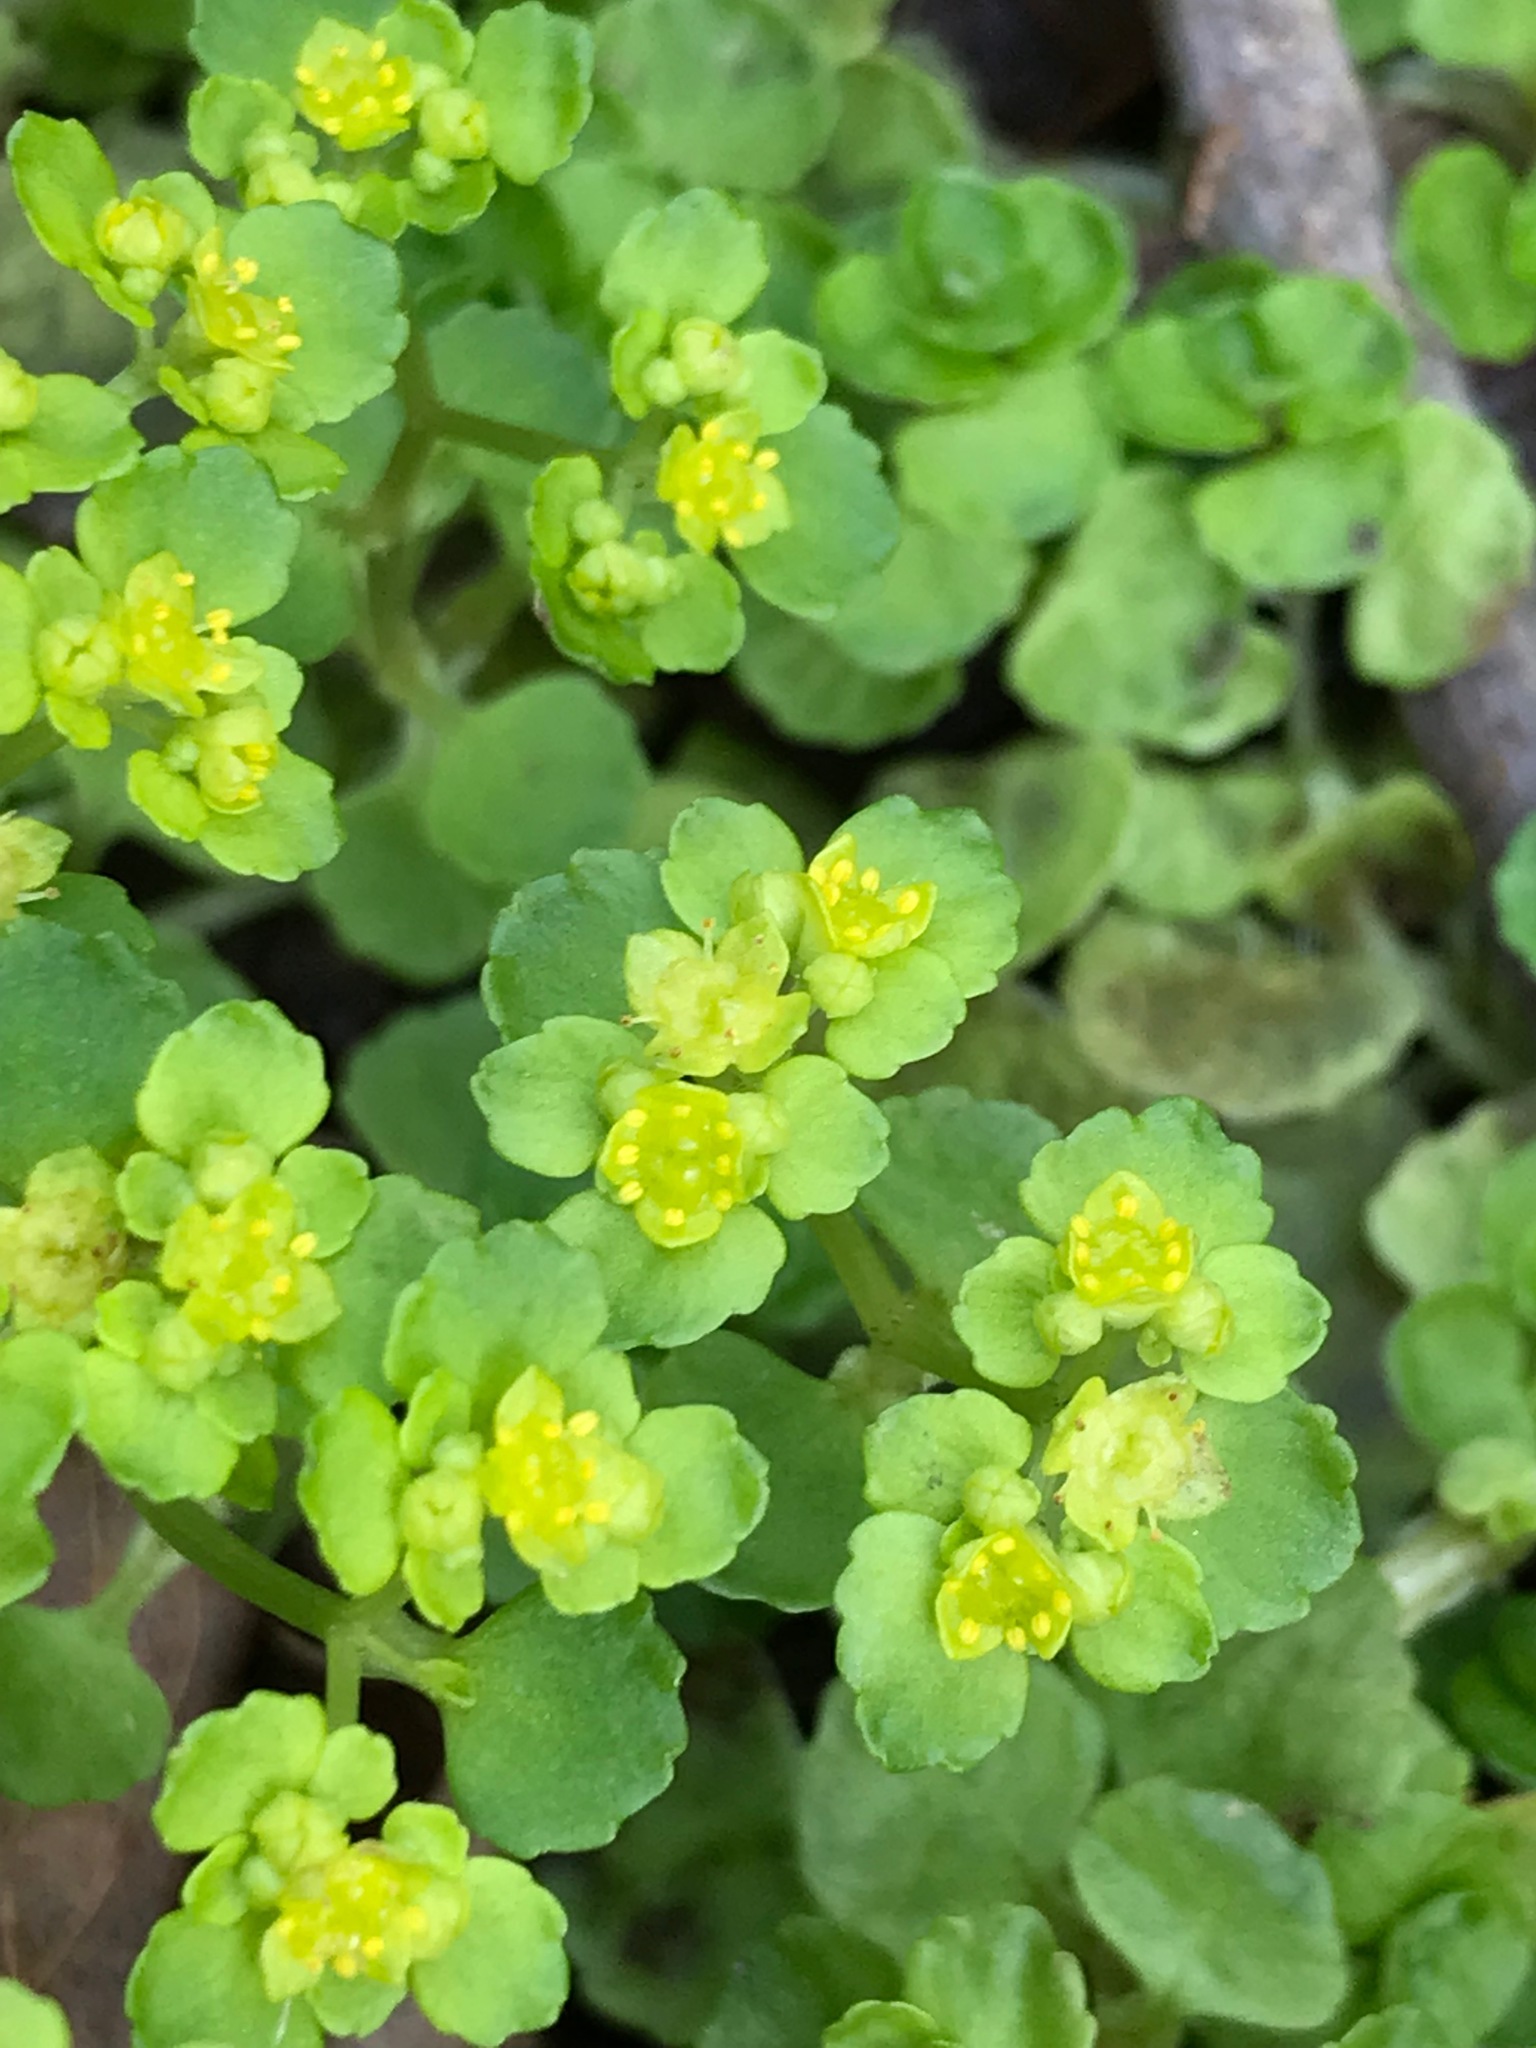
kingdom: Plantae
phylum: Tracheophyta
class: Magnoliopsida
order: Saxifragales
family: Saxifragaceae
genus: Chrysosplenium
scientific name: Chrysosplenium oppositifolium
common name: Opposite-leaved golden-saxifrage
